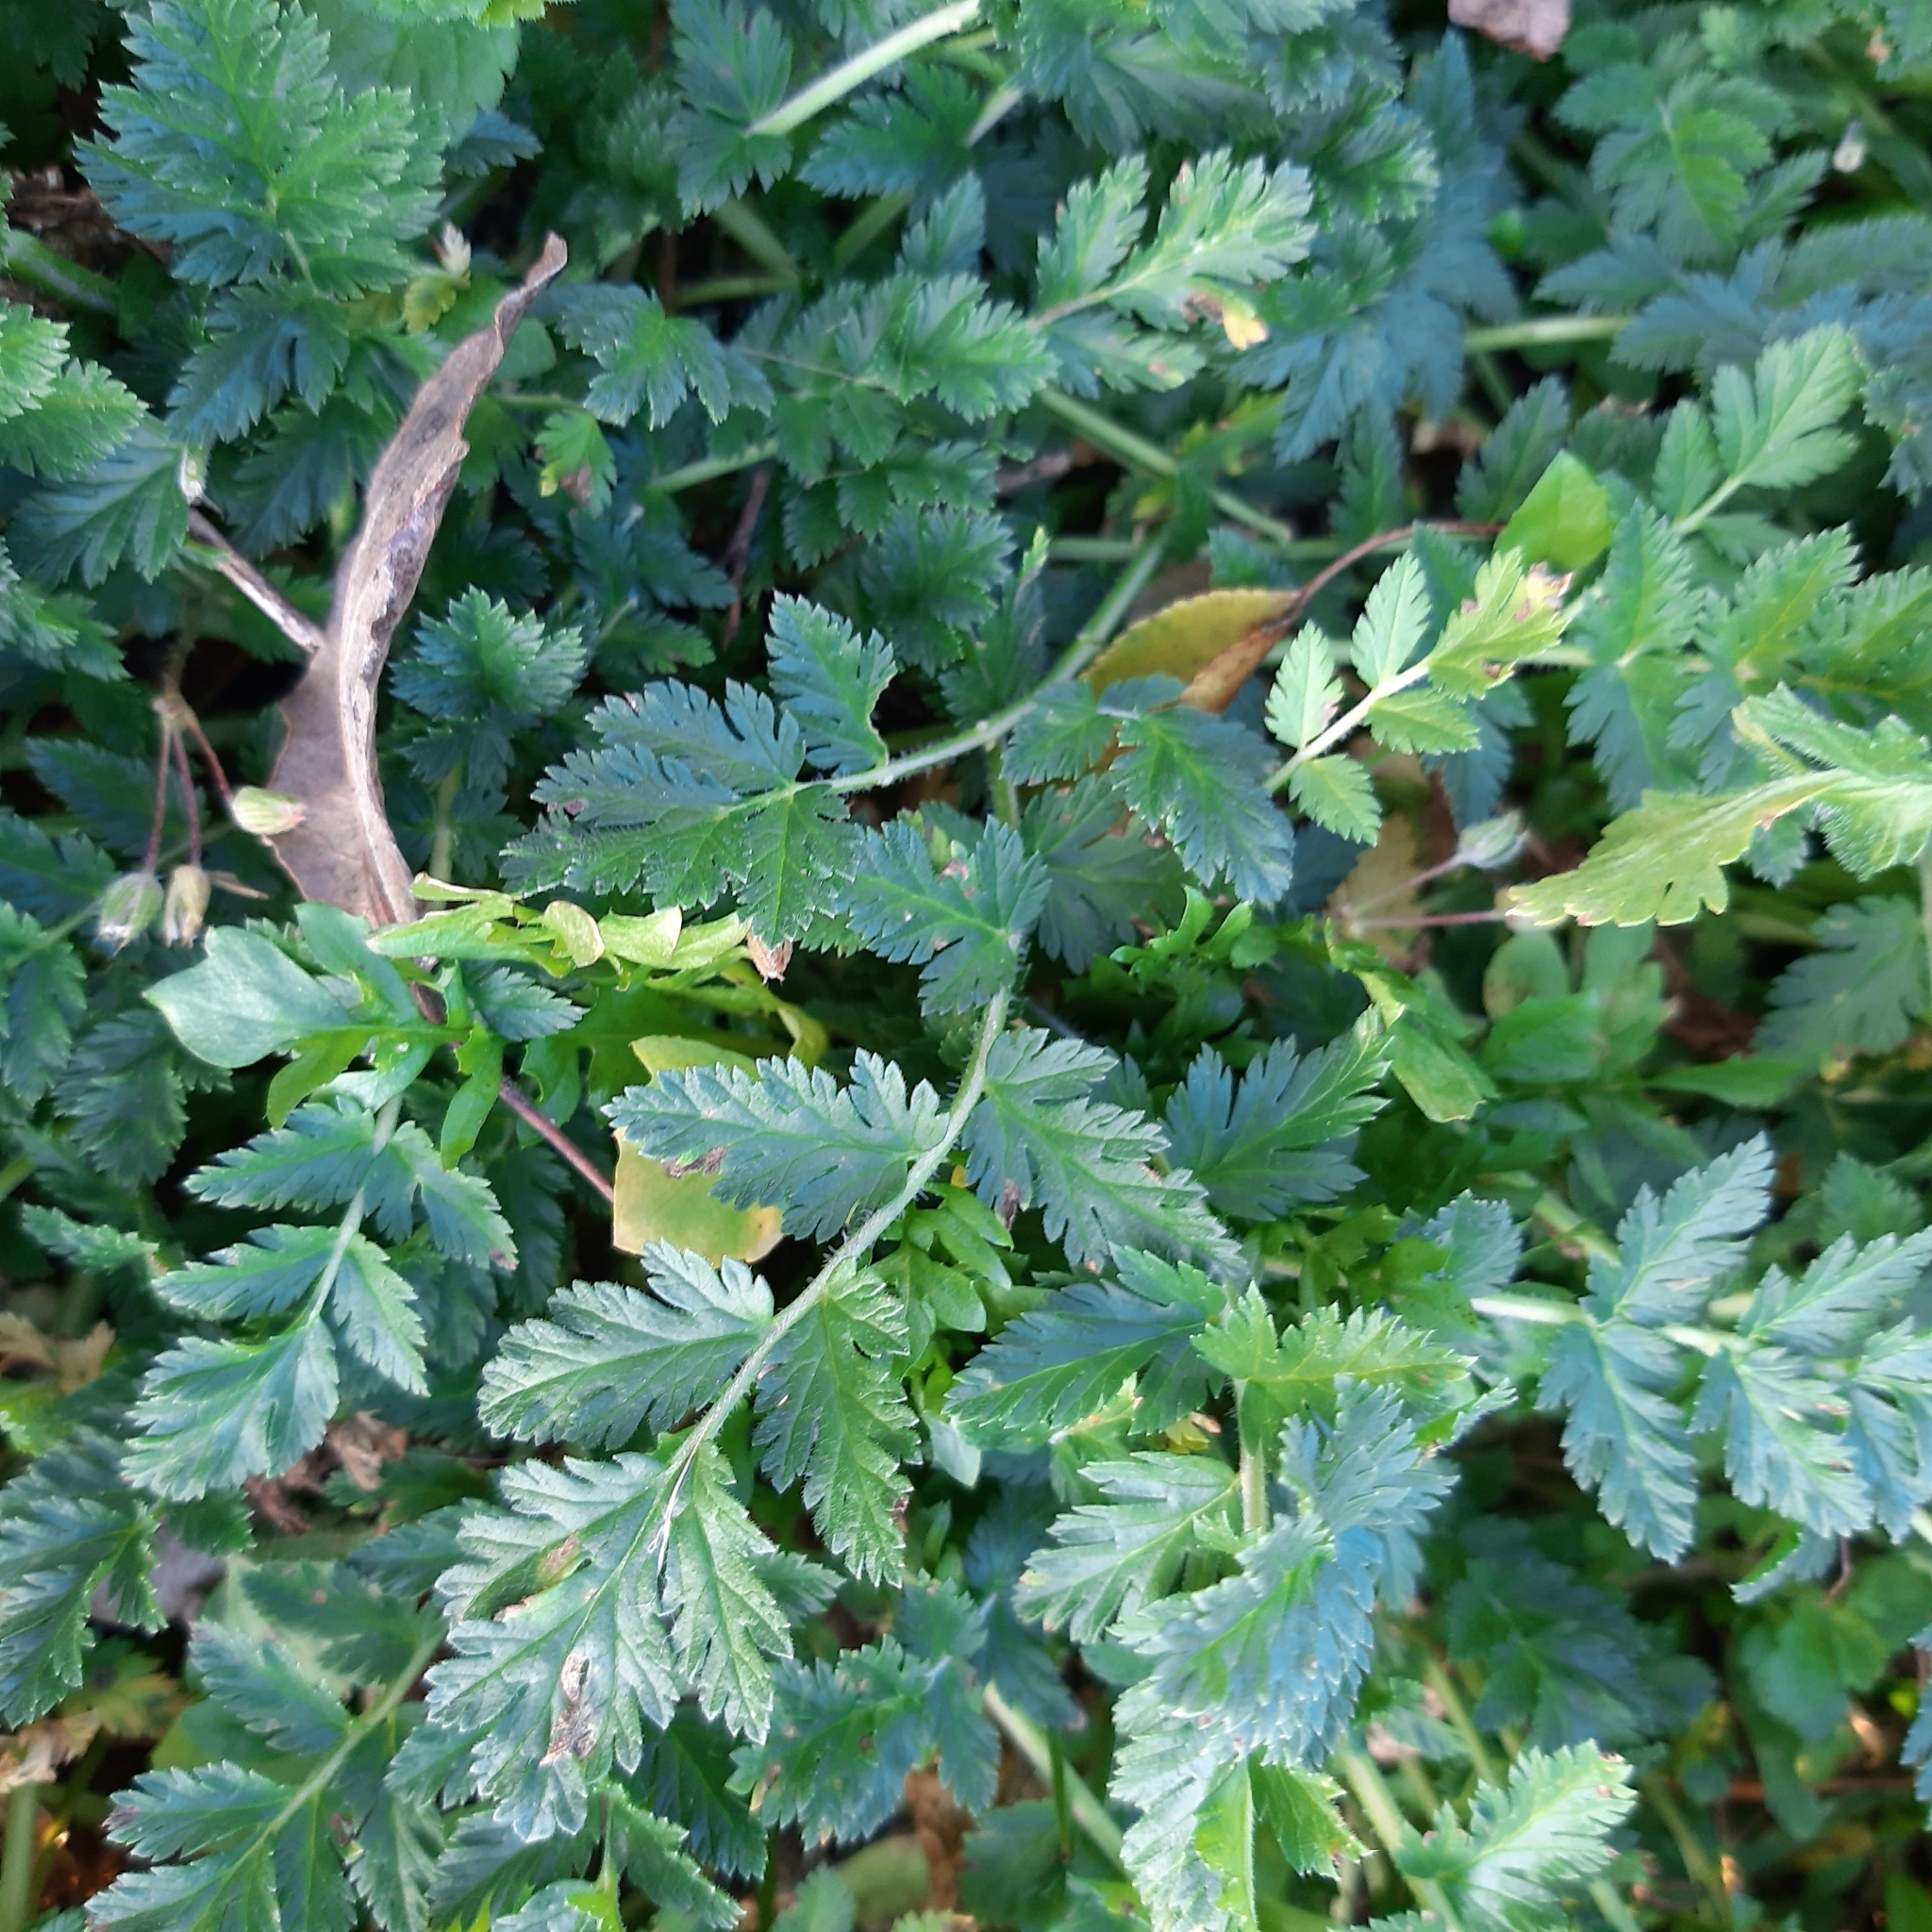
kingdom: Plantae
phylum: Tracheophyta
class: Magnoliopsida
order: Geraniales
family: Geraniaceae
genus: Erodium
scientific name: Erodium cicutarium
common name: Common stork's-bill
